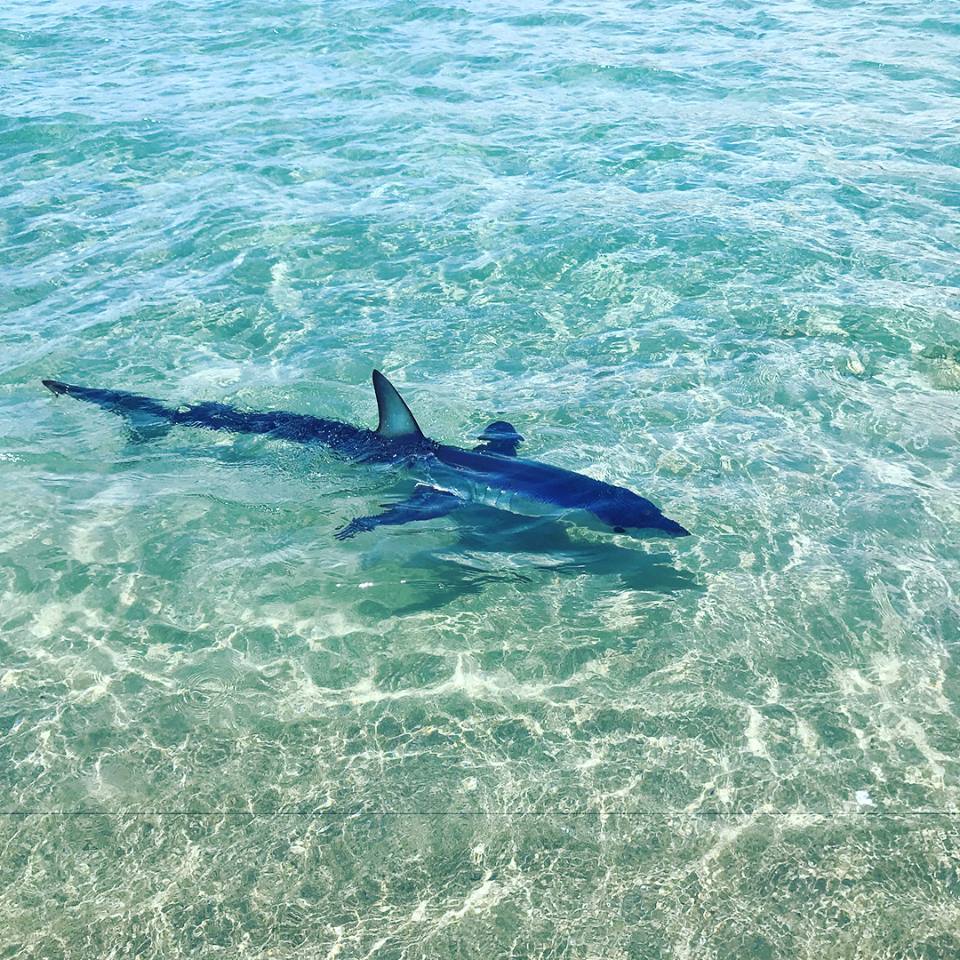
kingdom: Animalia
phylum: Chordata
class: Elasmobranchii
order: Lamniformes
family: Lamnidae
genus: Isurus
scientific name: Isurus oxyrinchus
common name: Shortfin mako
